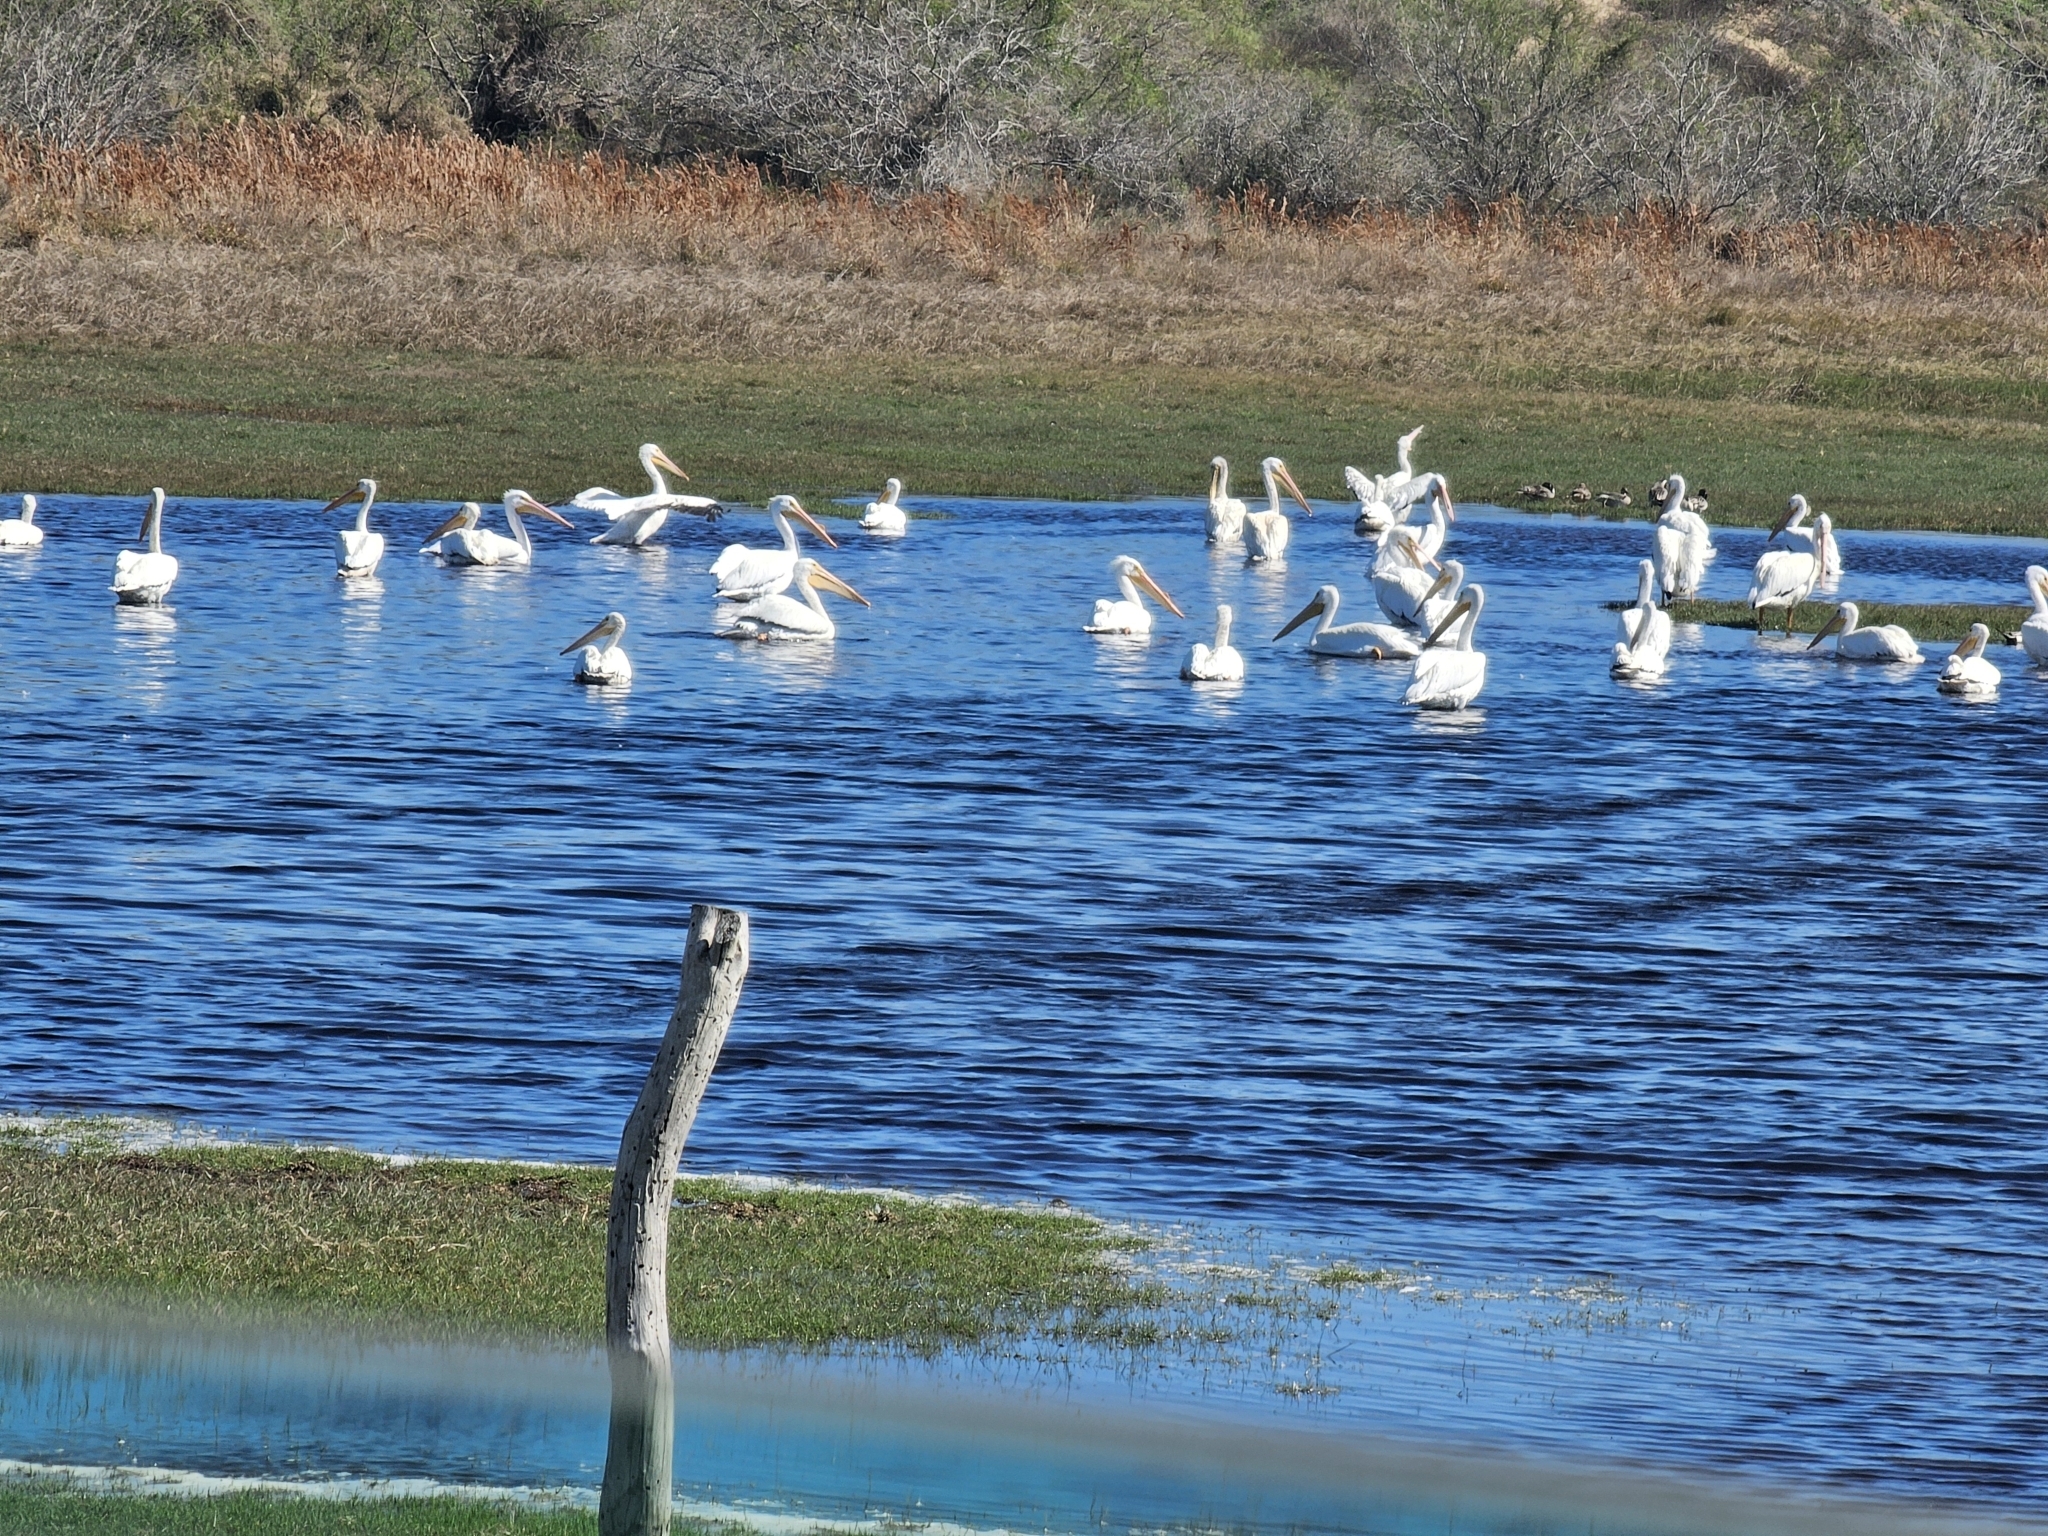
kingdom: Animalia
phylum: Chordata
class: Aves
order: Pelecaniformes
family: Pelecanidae
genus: Pelecanus
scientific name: Pelecanus erythrorhynchos
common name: American white pelican
